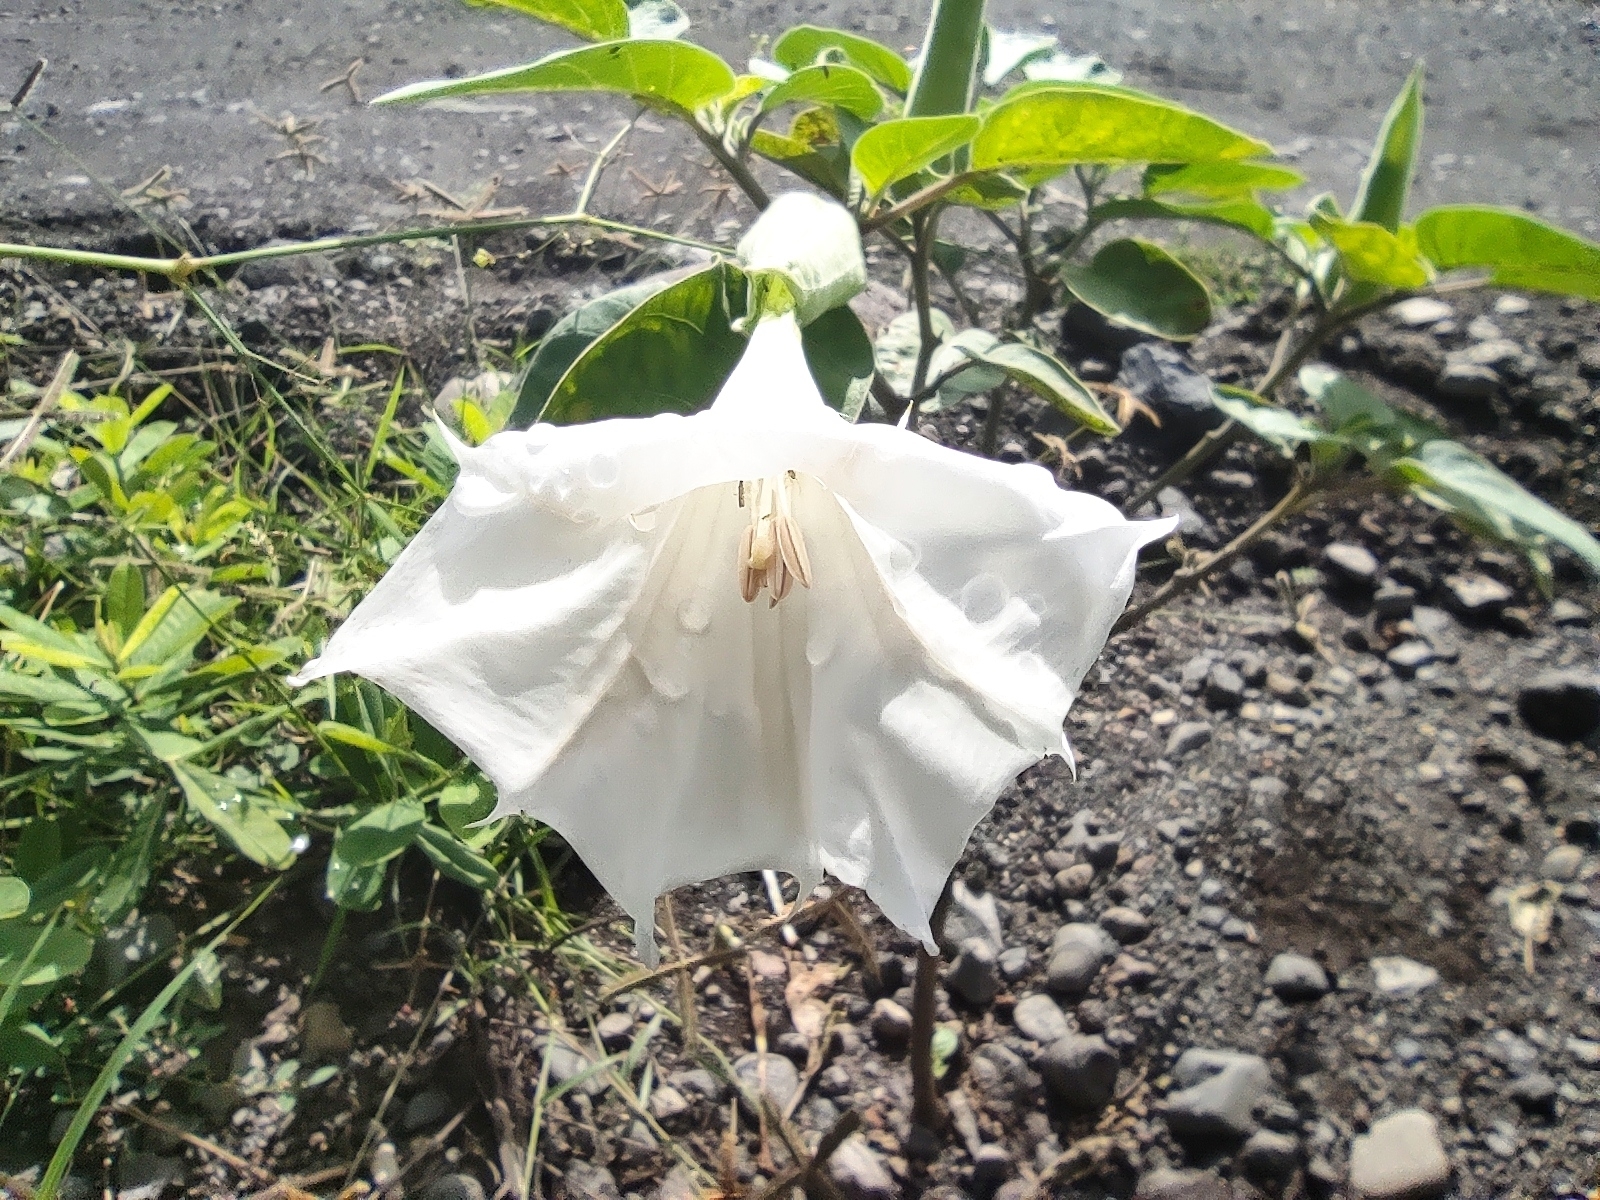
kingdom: Plantae
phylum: Tracheophyta
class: Magnoliopsida
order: Solanales
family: Solanaceae
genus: Datura
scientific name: Datura innoxia
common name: Downy thorn-apple
